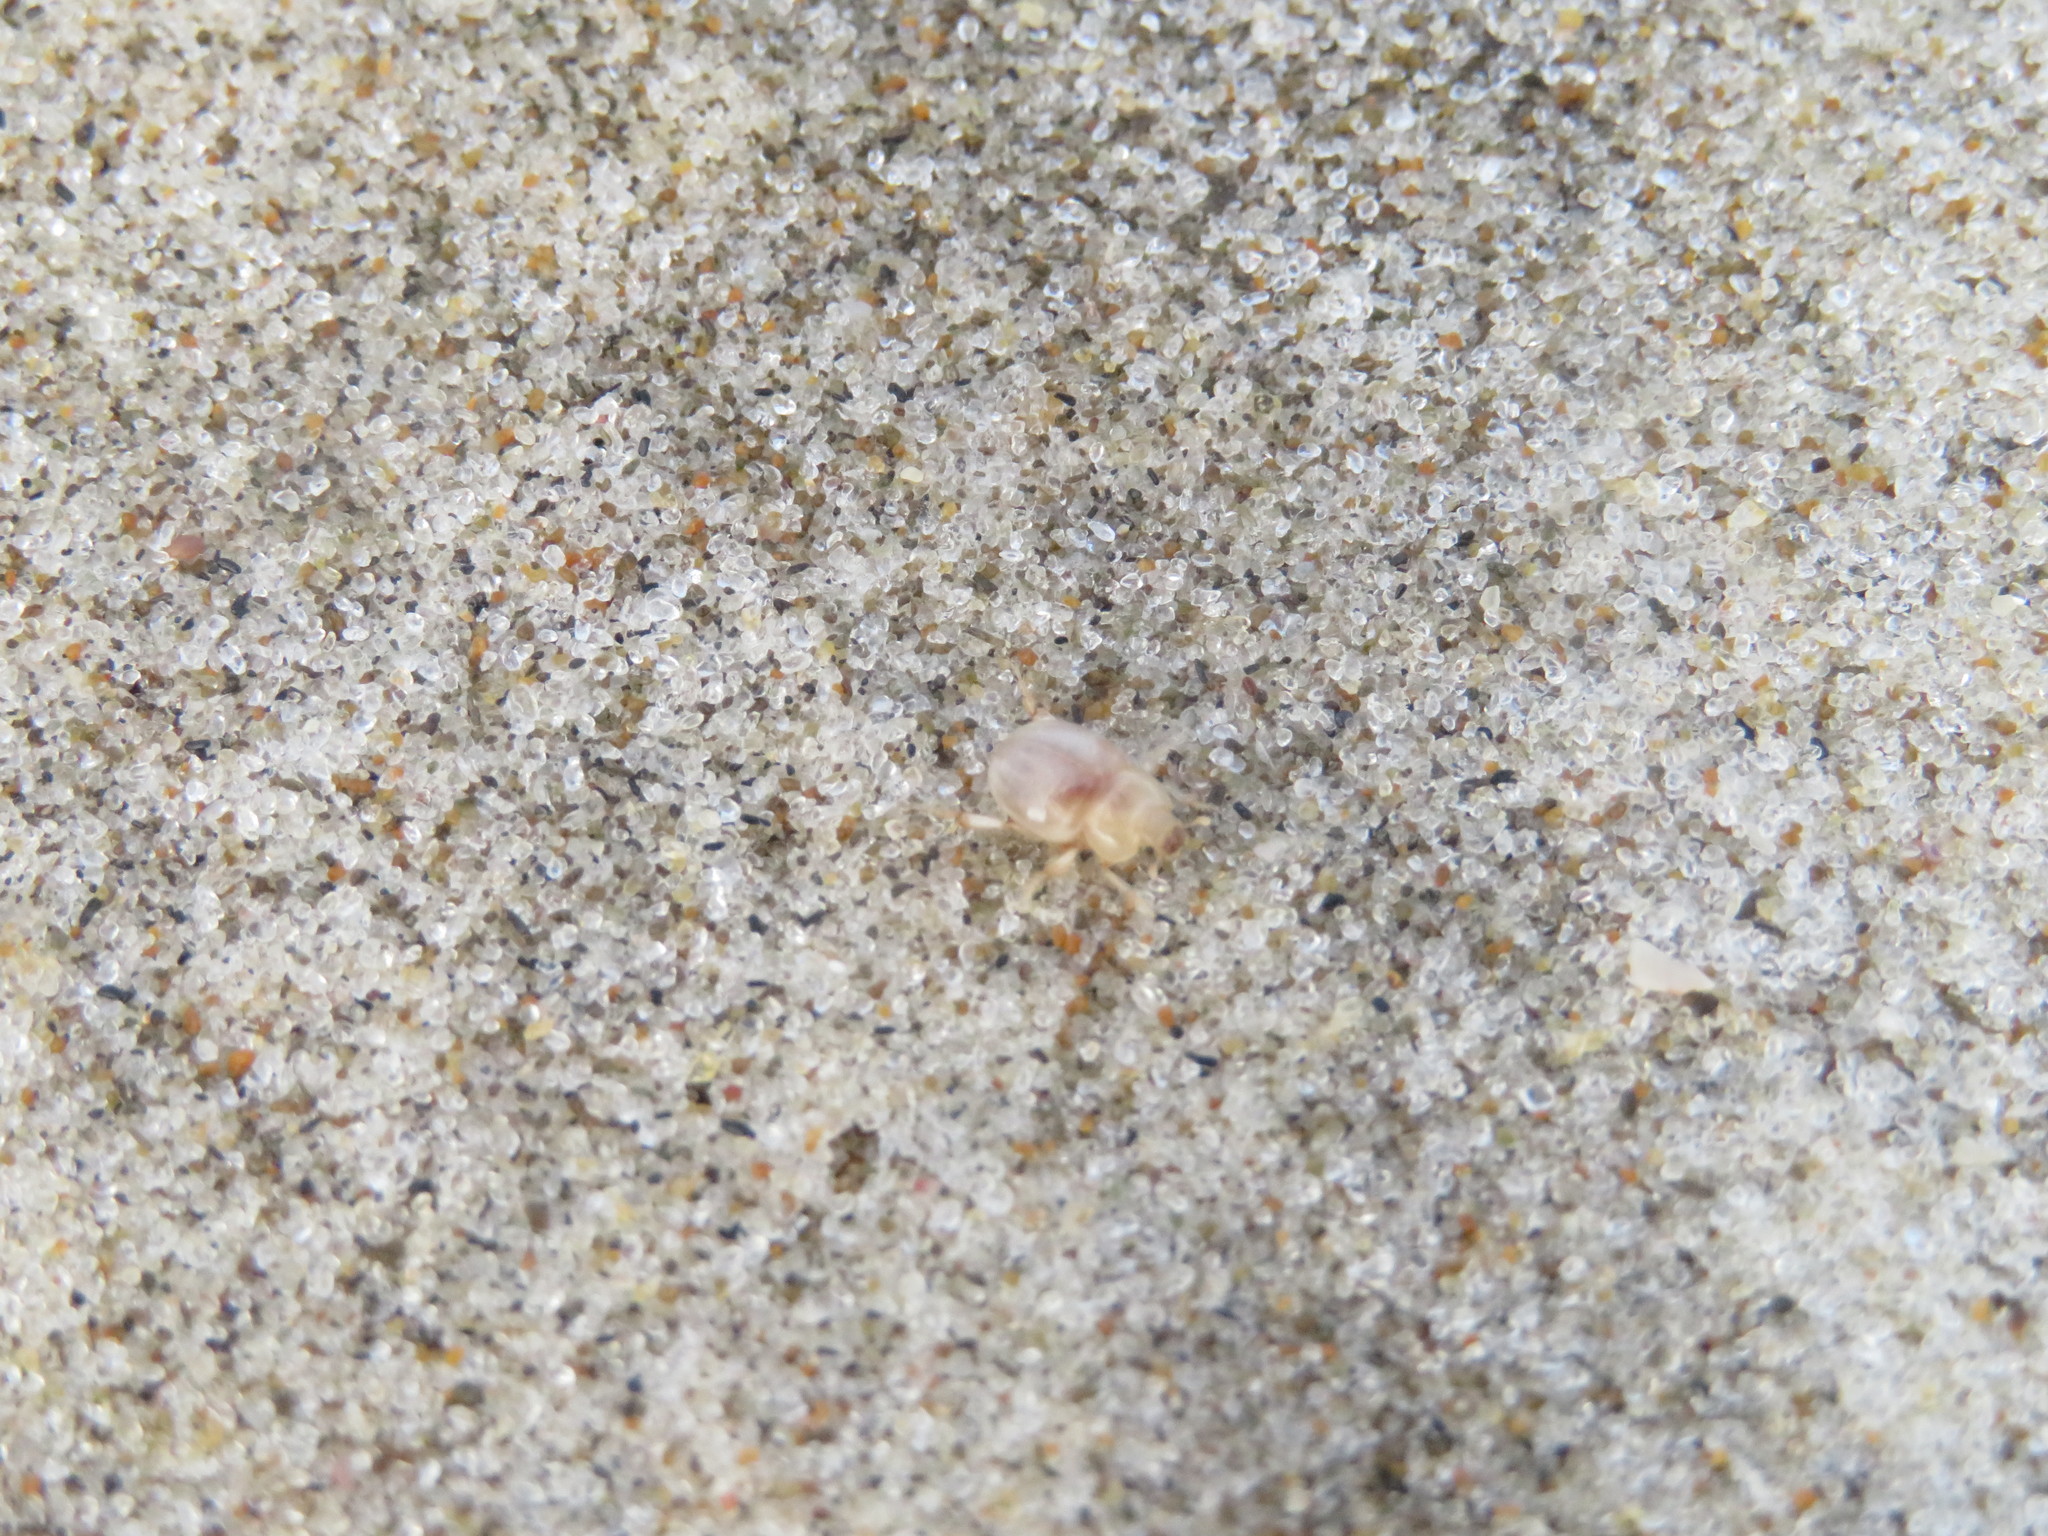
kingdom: Animalia
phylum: Arthropoda
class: Insecta
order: Coleoptera
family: Tenebrionidae
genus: Chaerodes
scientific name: Chaerodes
